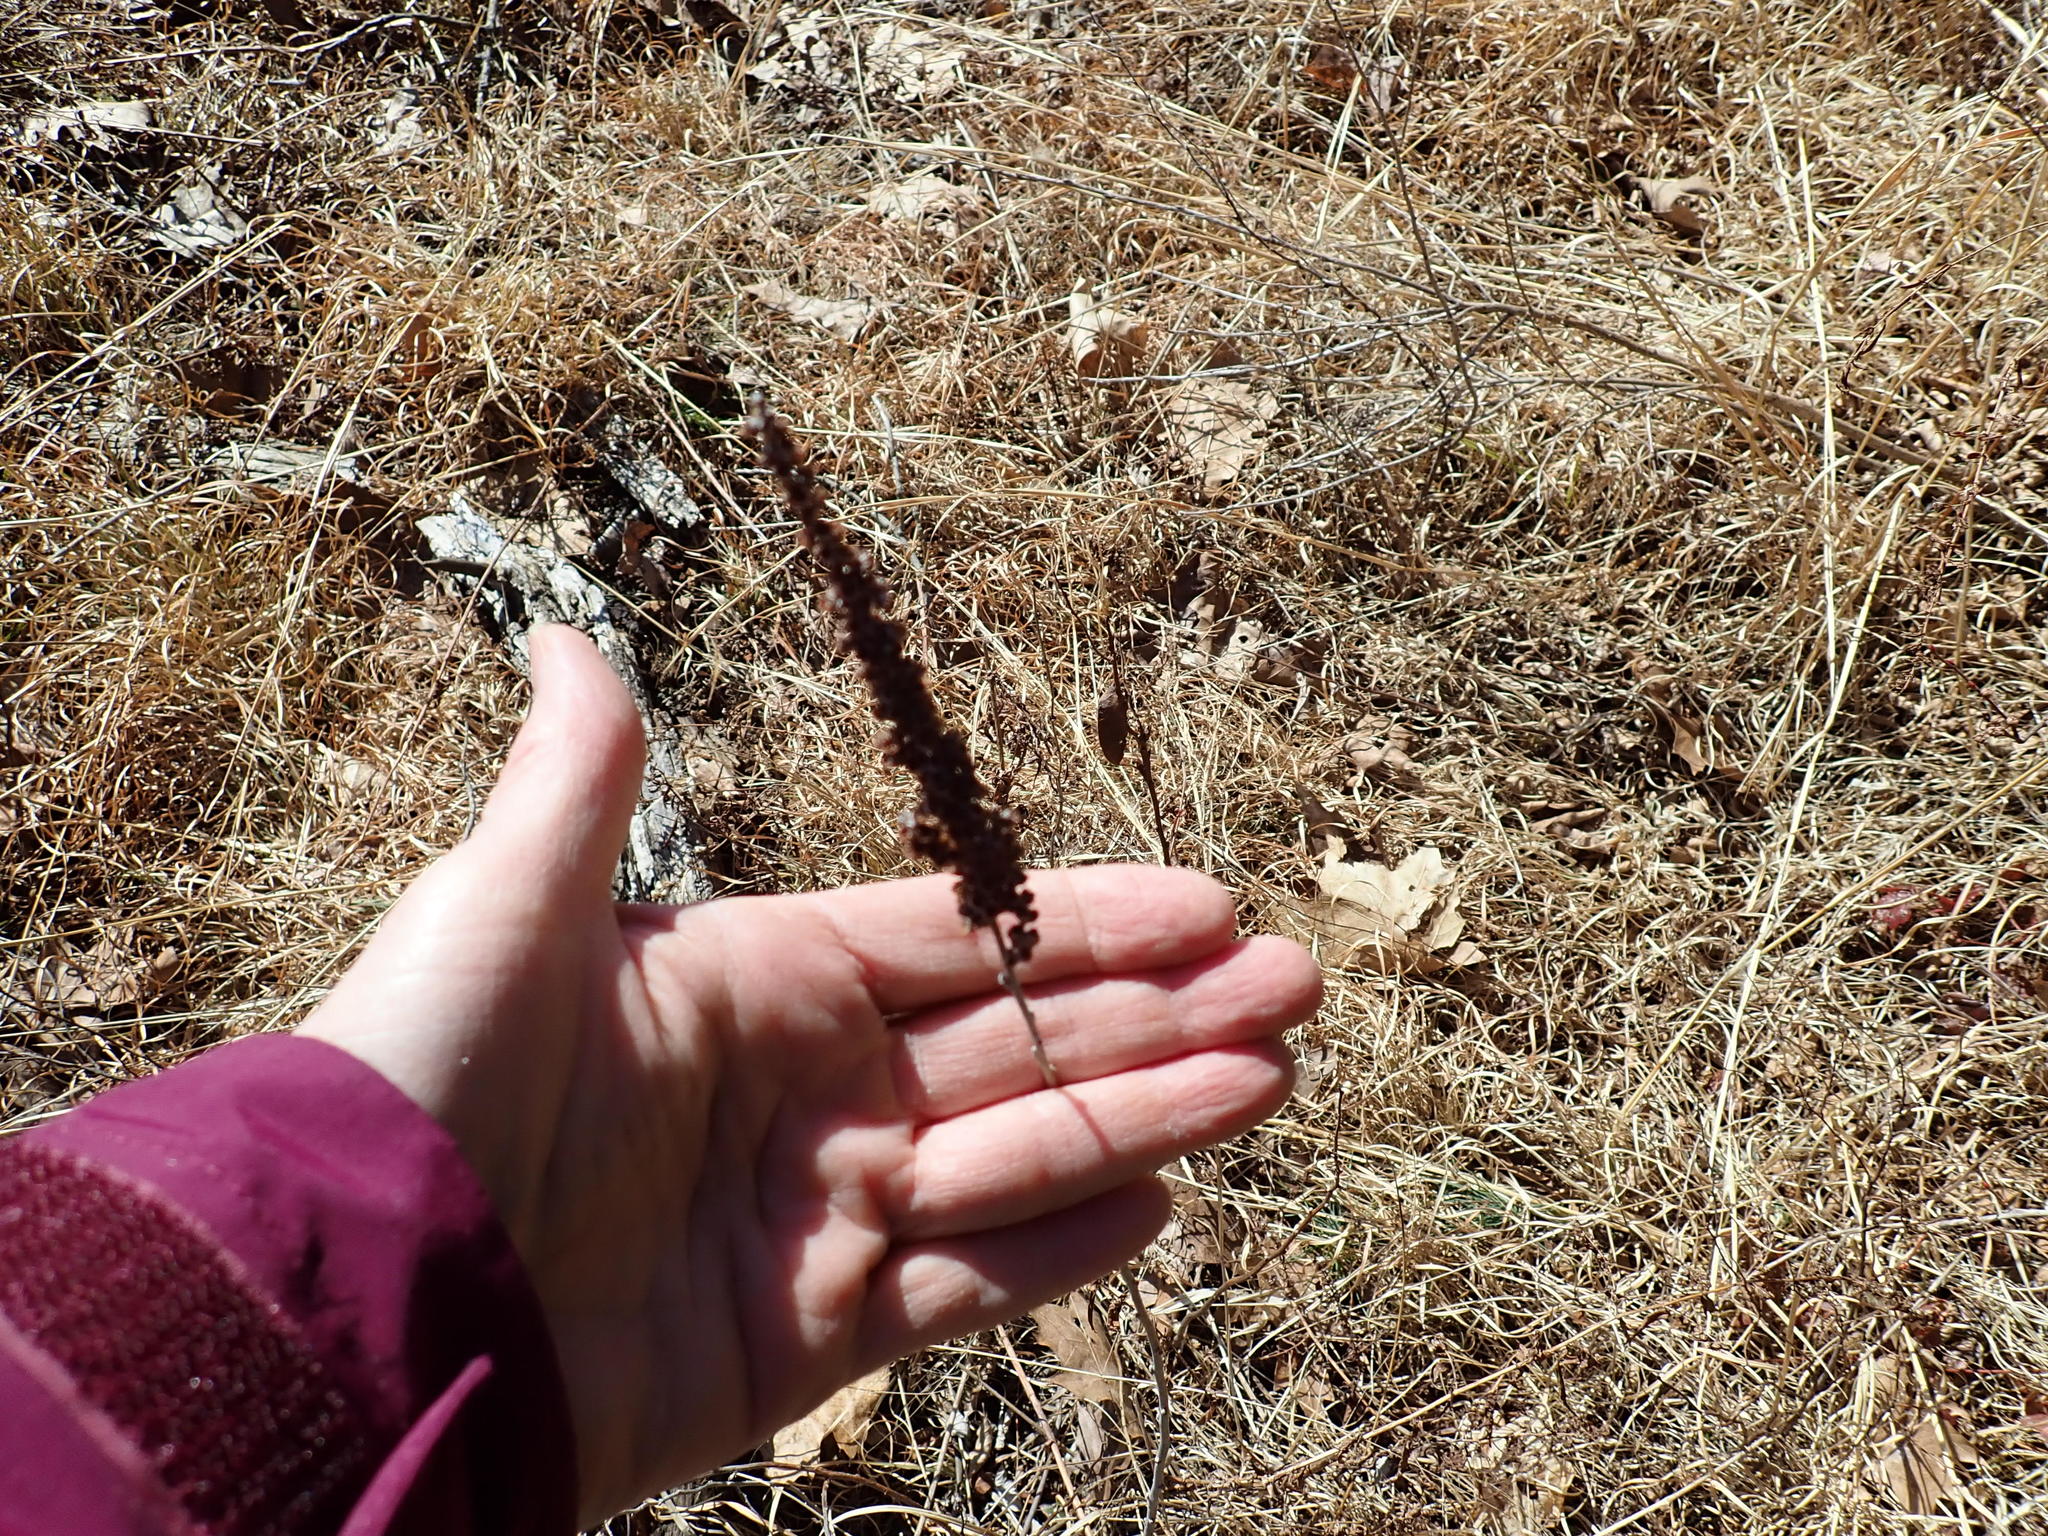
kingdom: Plantae
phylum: Tracheophyta
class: Magnoliopsida
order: Rosales
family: Rosaceae
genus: Spiraea
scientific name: Spiraea tomentosa
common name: Hardhack
